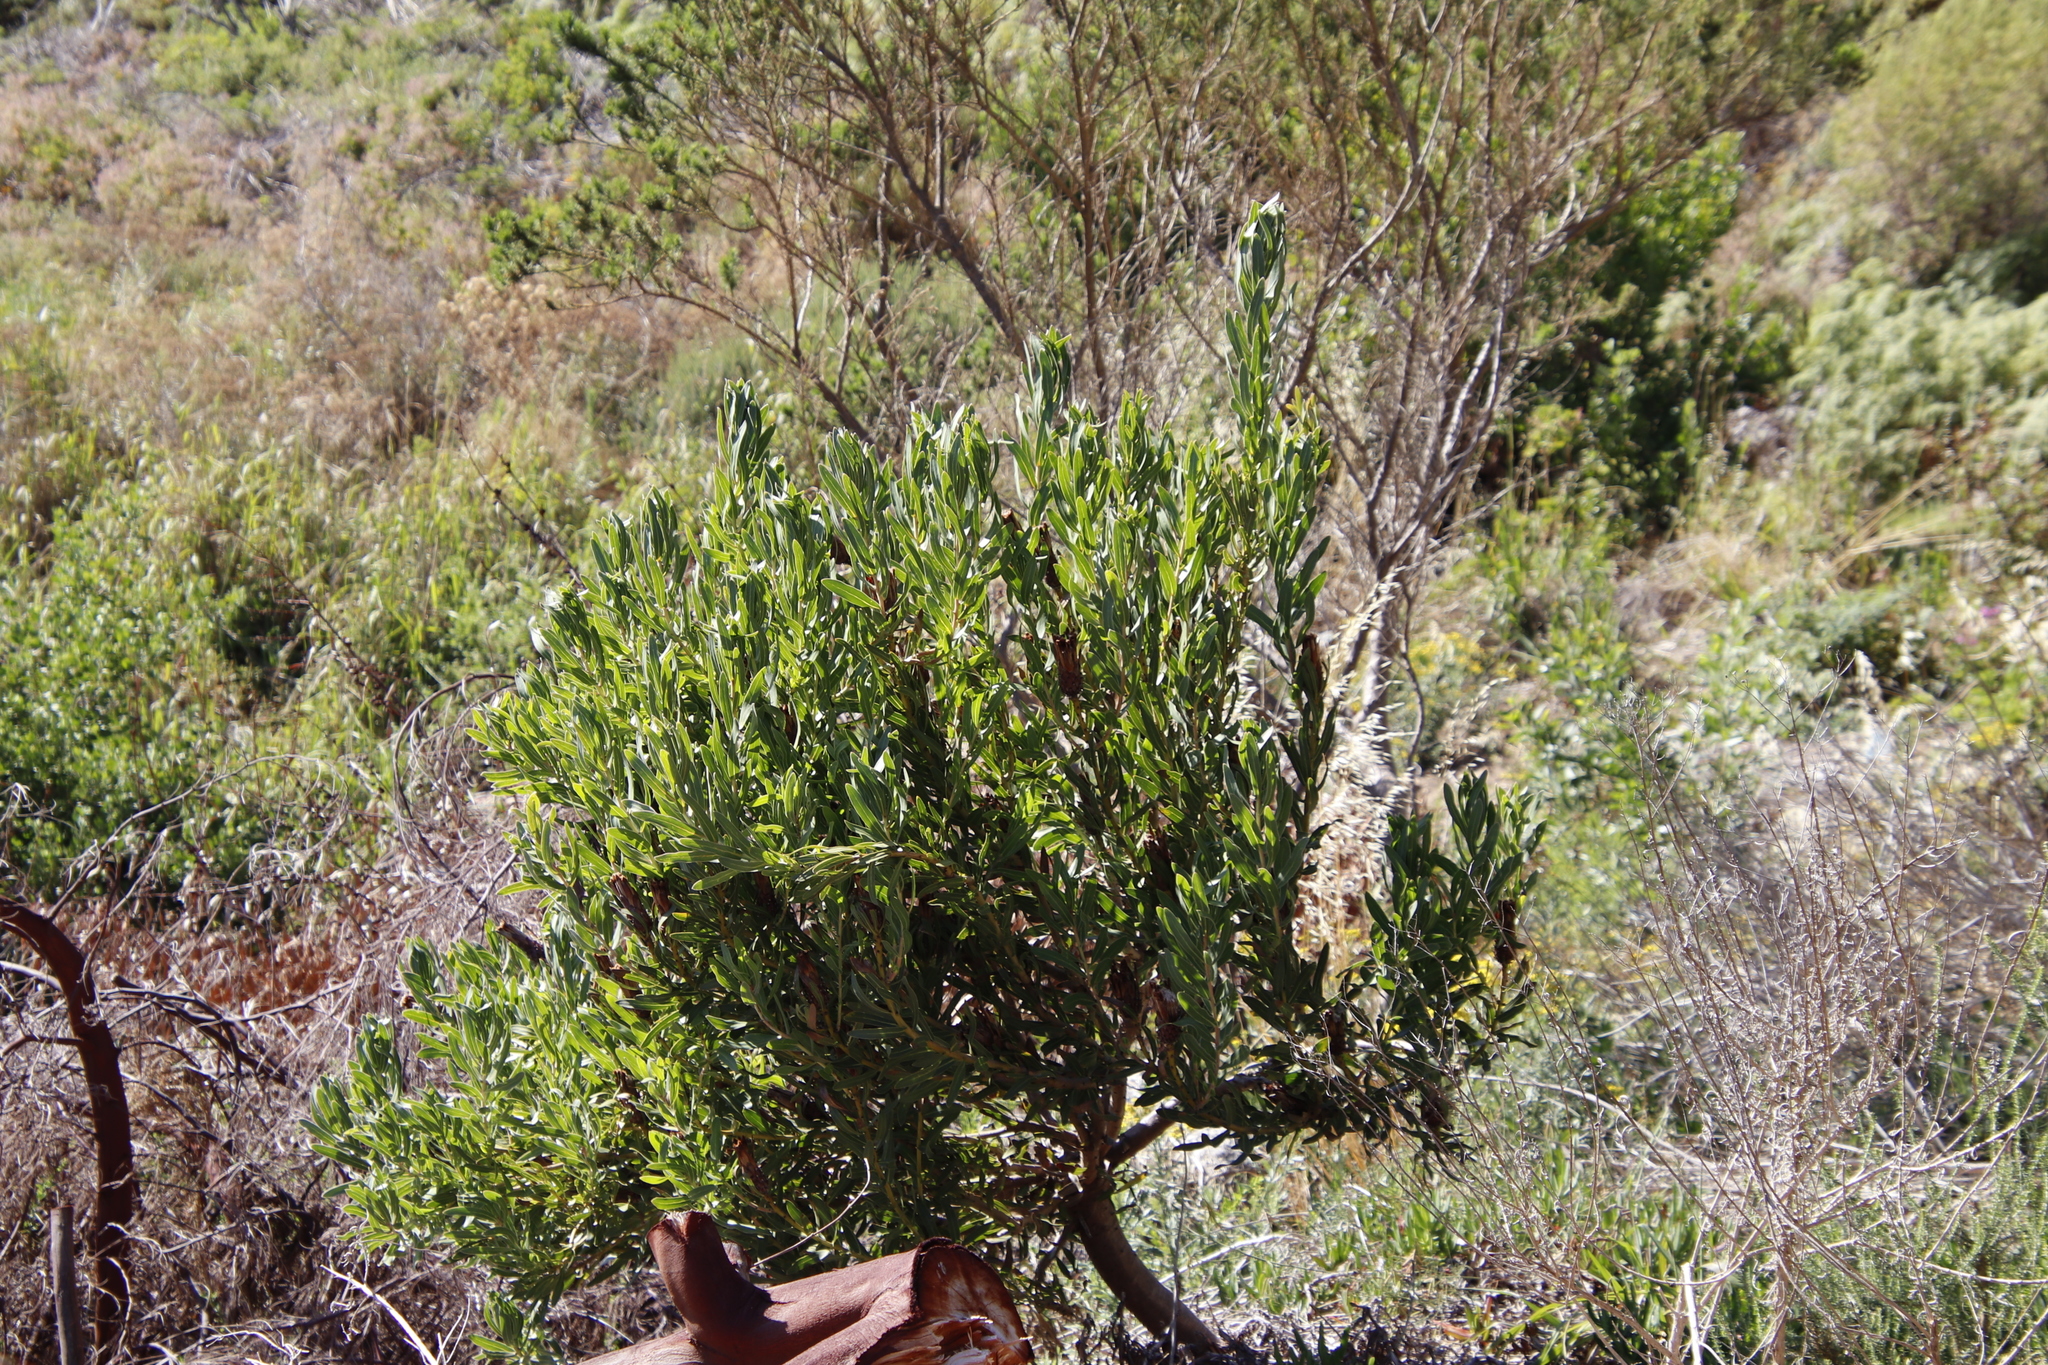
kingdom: Plantae
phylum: Tracheophyta
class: Magnoliopsida
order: Proteales
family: Proteaceae
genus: Protea
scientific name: Protea lepidocarpodendron
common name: Black-bearded protea
